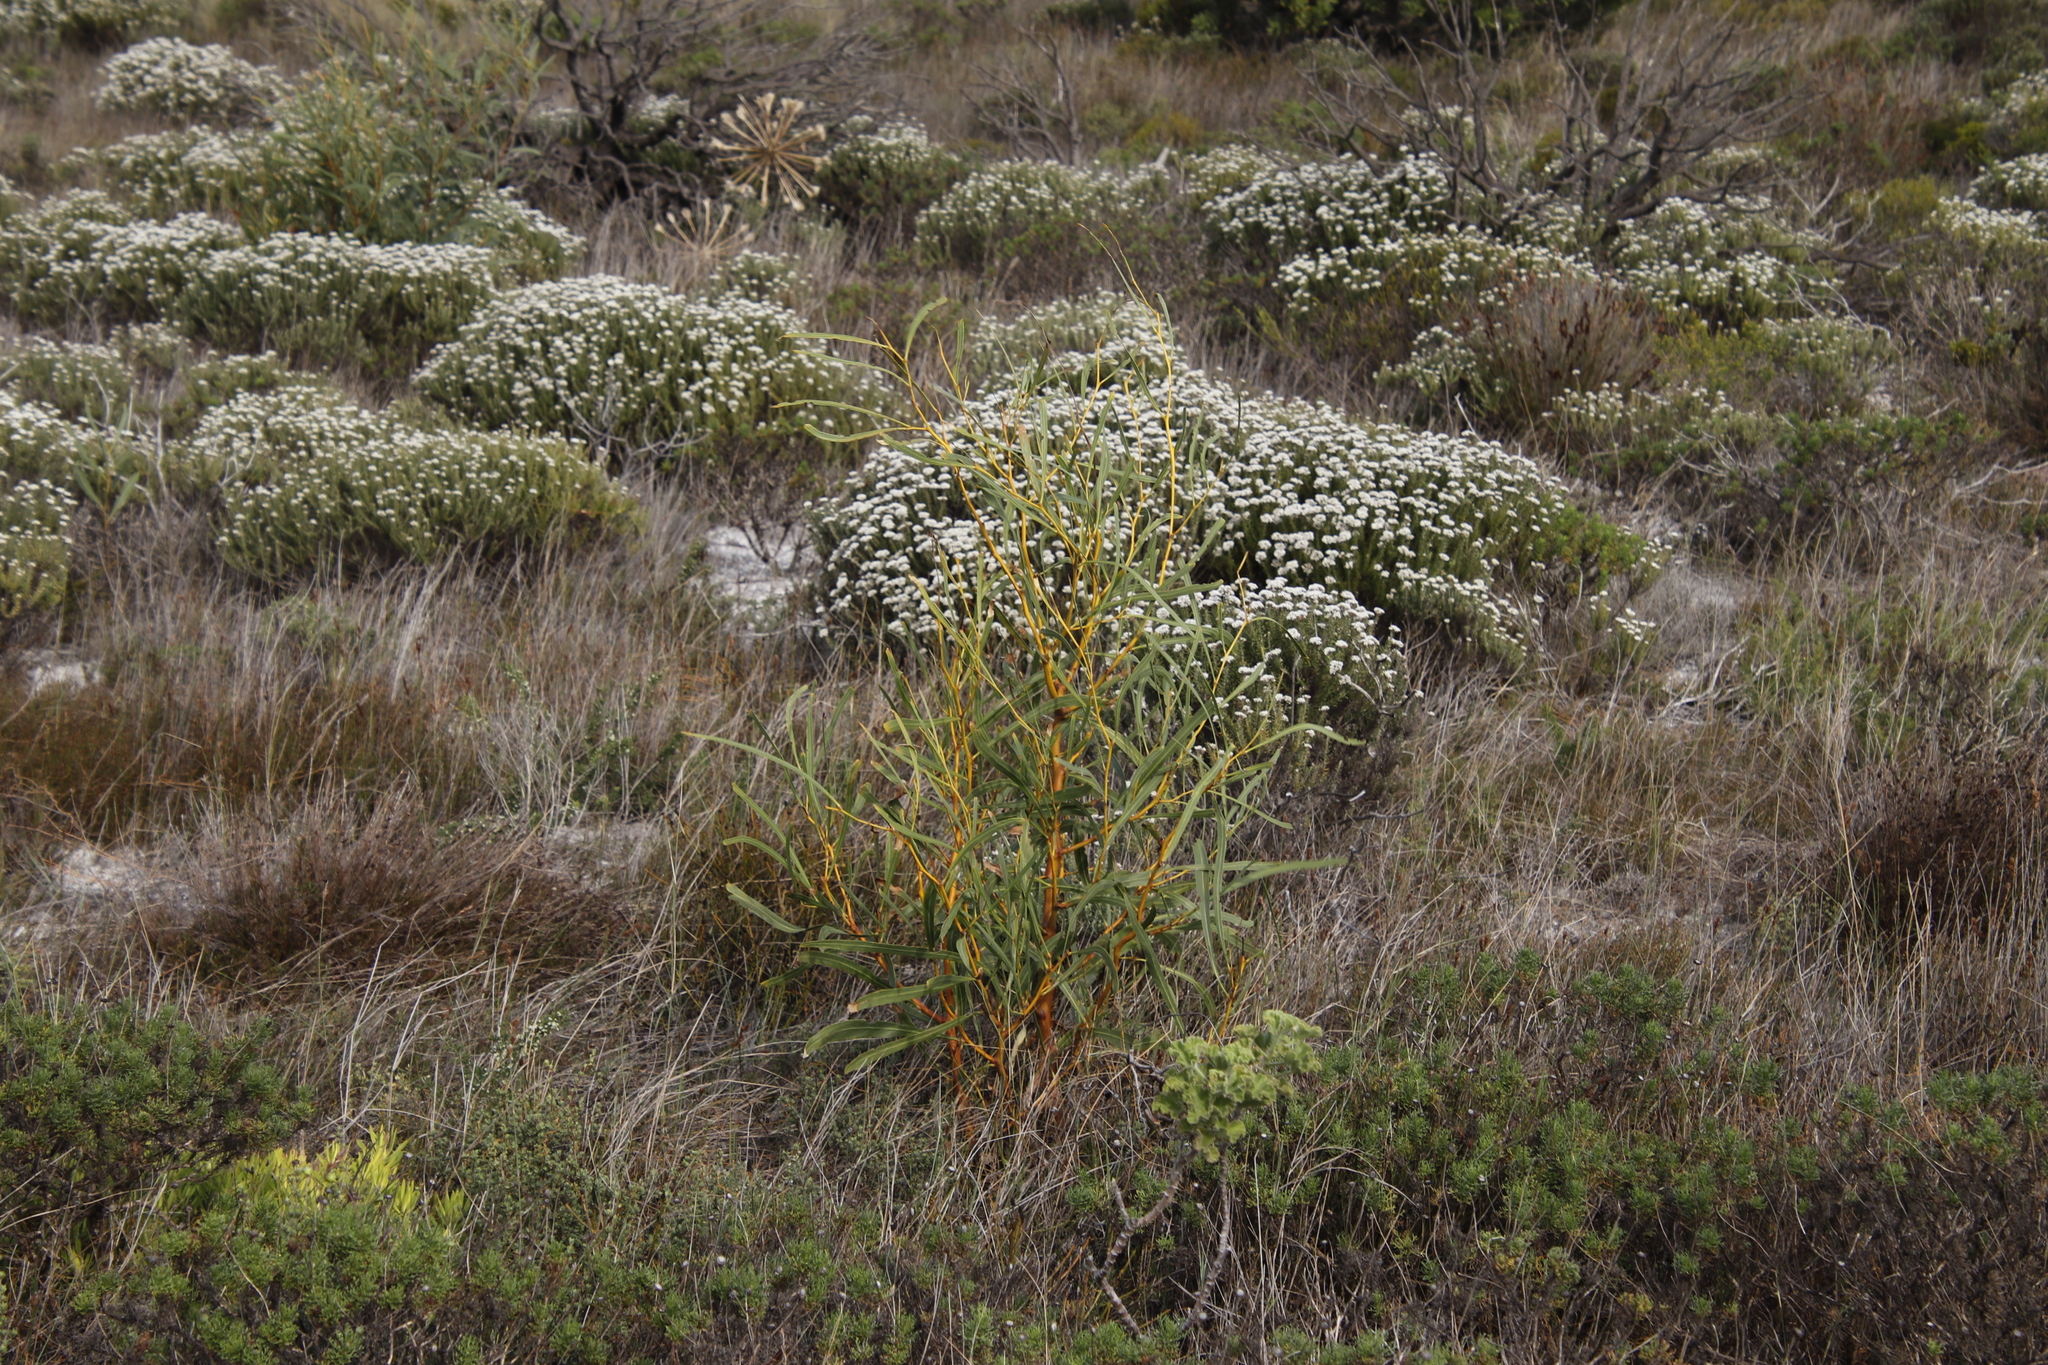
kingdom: Plantae
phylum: Tracheophyta
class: Liliopsida
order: Asparagales
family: Amaryllidaceae
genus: Brunsvigia
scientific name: Brunsvigia orientalis
